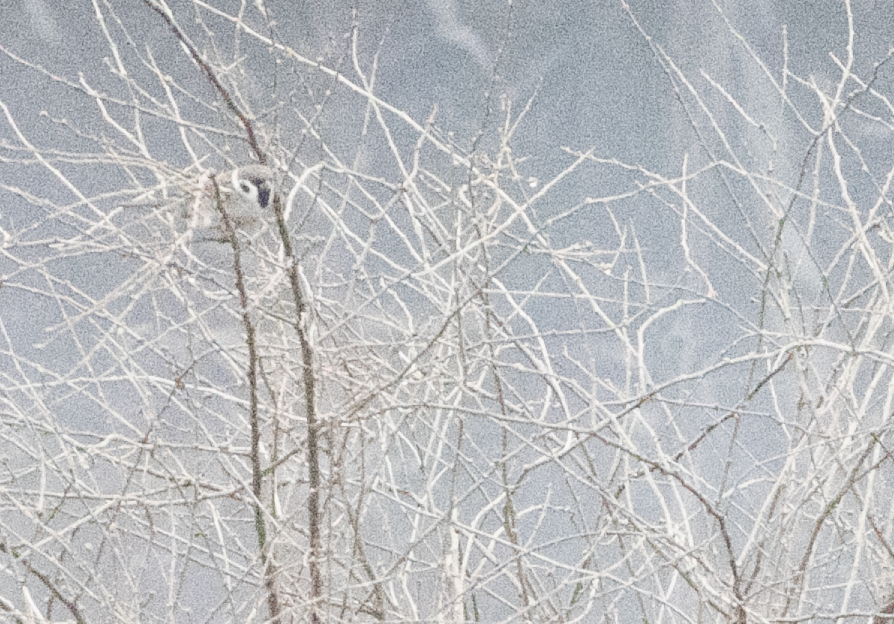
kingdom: Animalia
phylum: Chordata
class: Aves
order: Passeriformes
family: Passeridae
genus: Passer
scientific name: Passer montanus
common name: Eurasian tree sparrow
